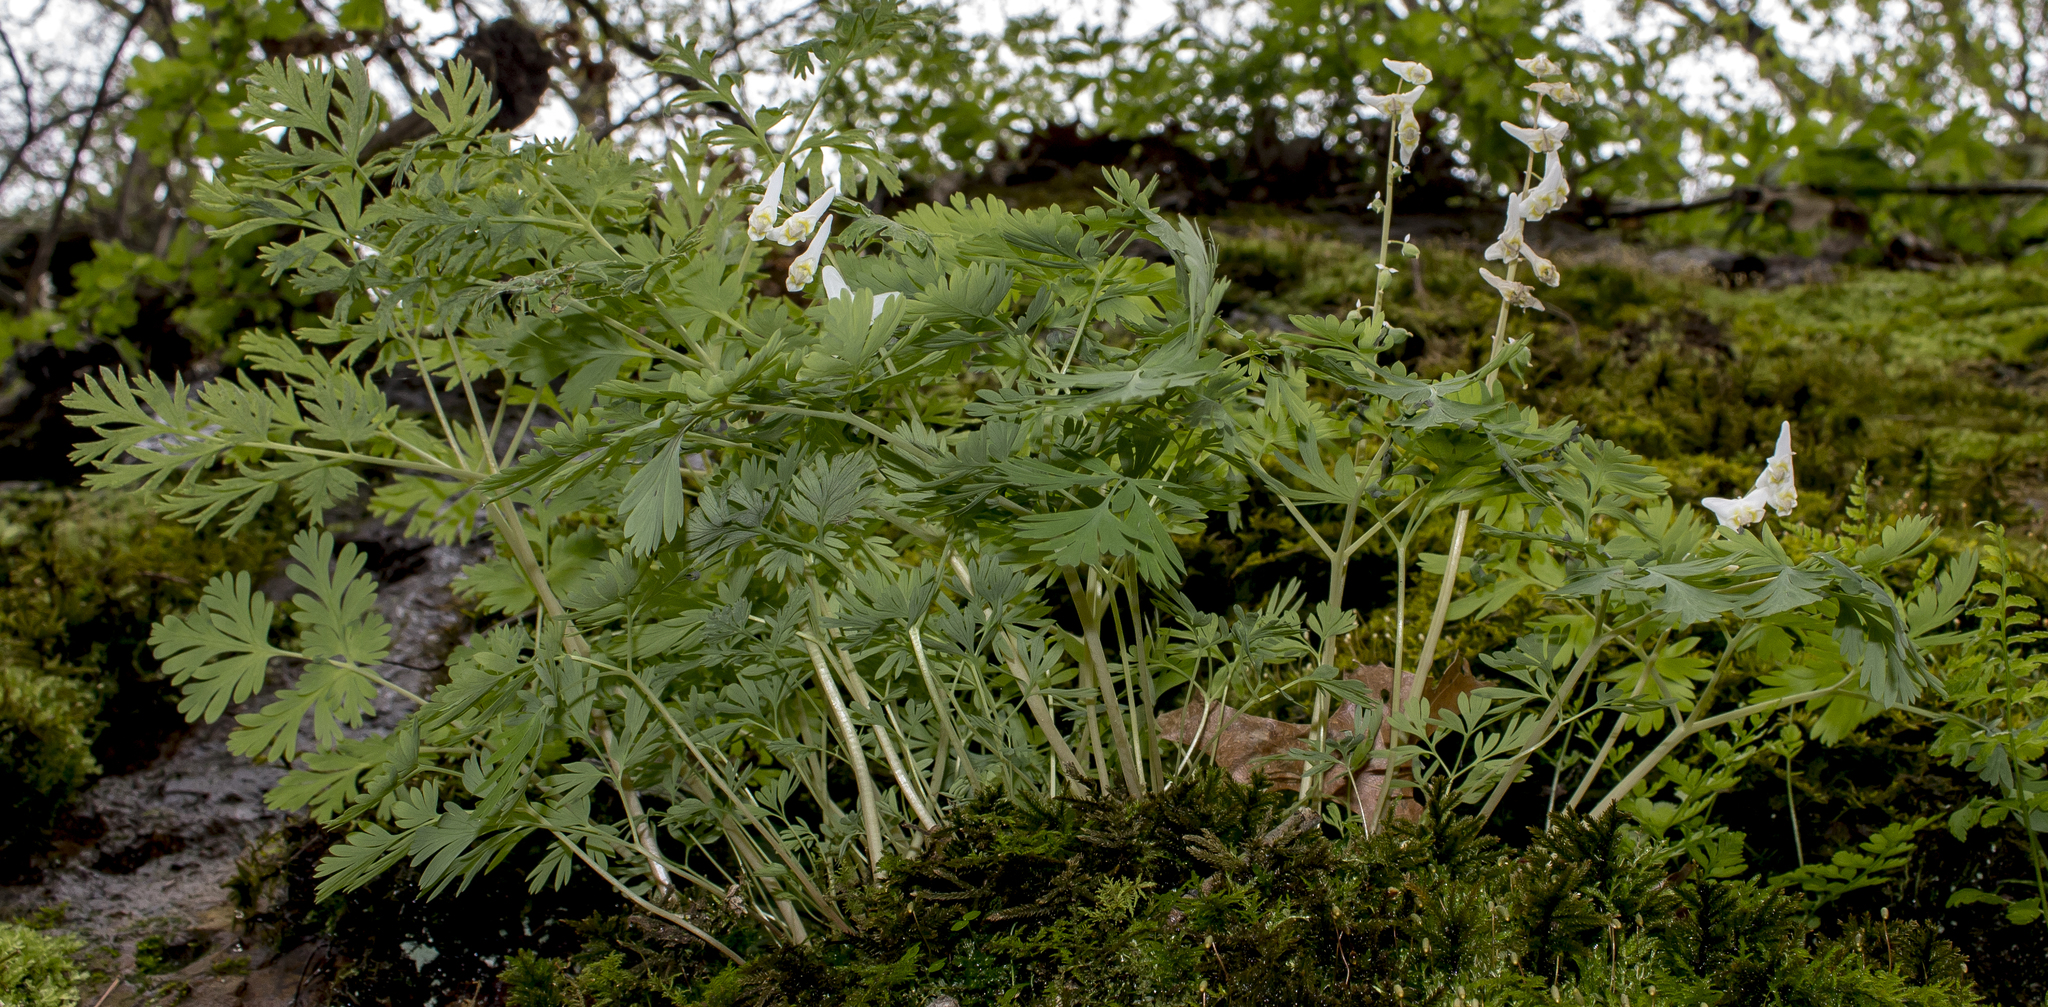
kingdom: Plantae
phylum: Tracheophyta
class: Magnoliopsida
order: Ranunculales
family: Papaveraceae
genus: Dicentra
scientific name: Dicentra cucullaria
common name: Dutchman's breeches
